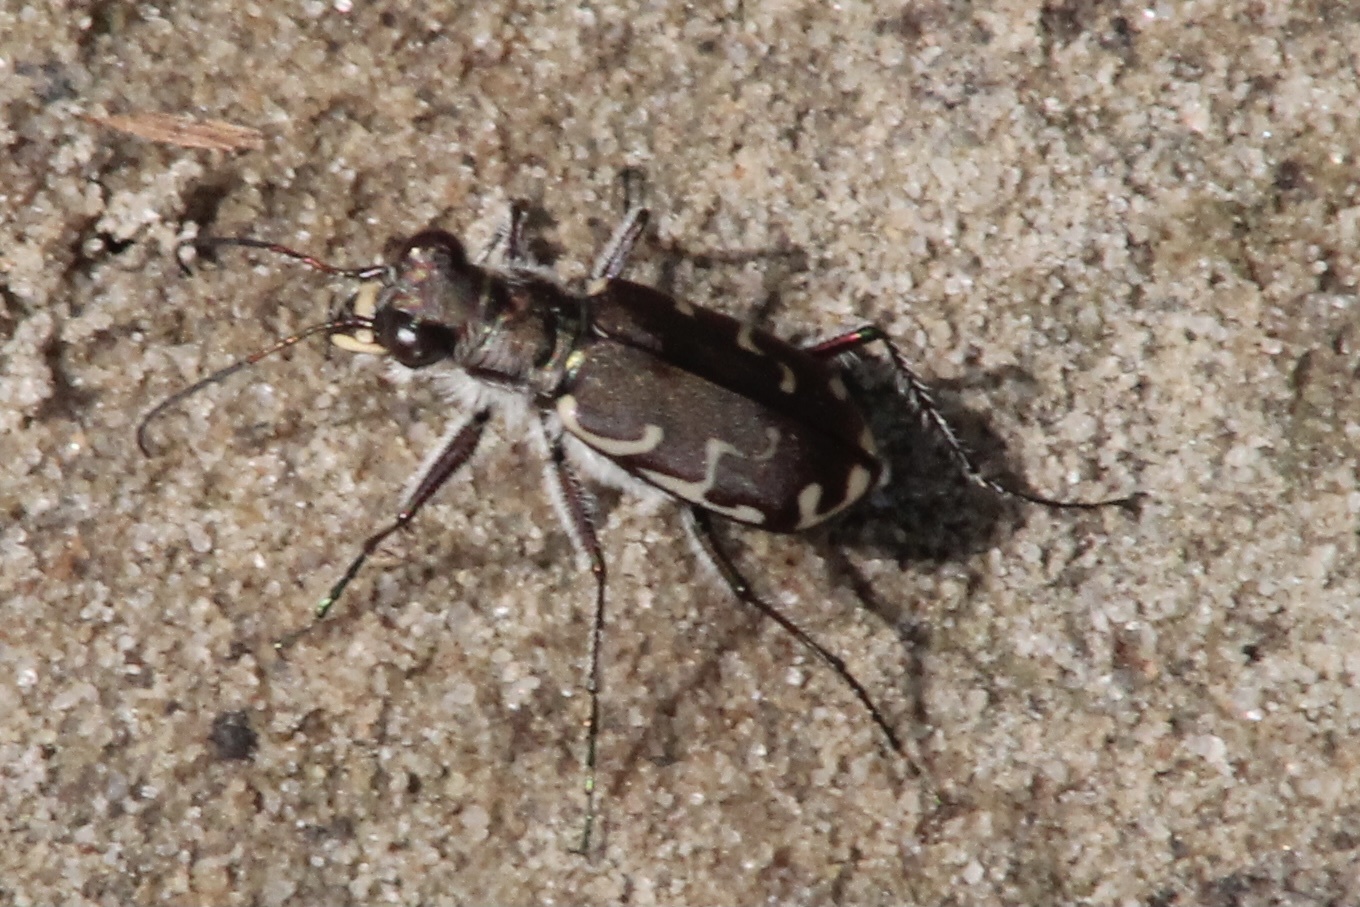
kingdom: Animalia
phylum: Arthropoda
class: Insecta
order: Coleoptera
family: Carabidae
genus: Cicindela
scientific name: Cicindela repanda
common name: Bronzed tiger beetle
